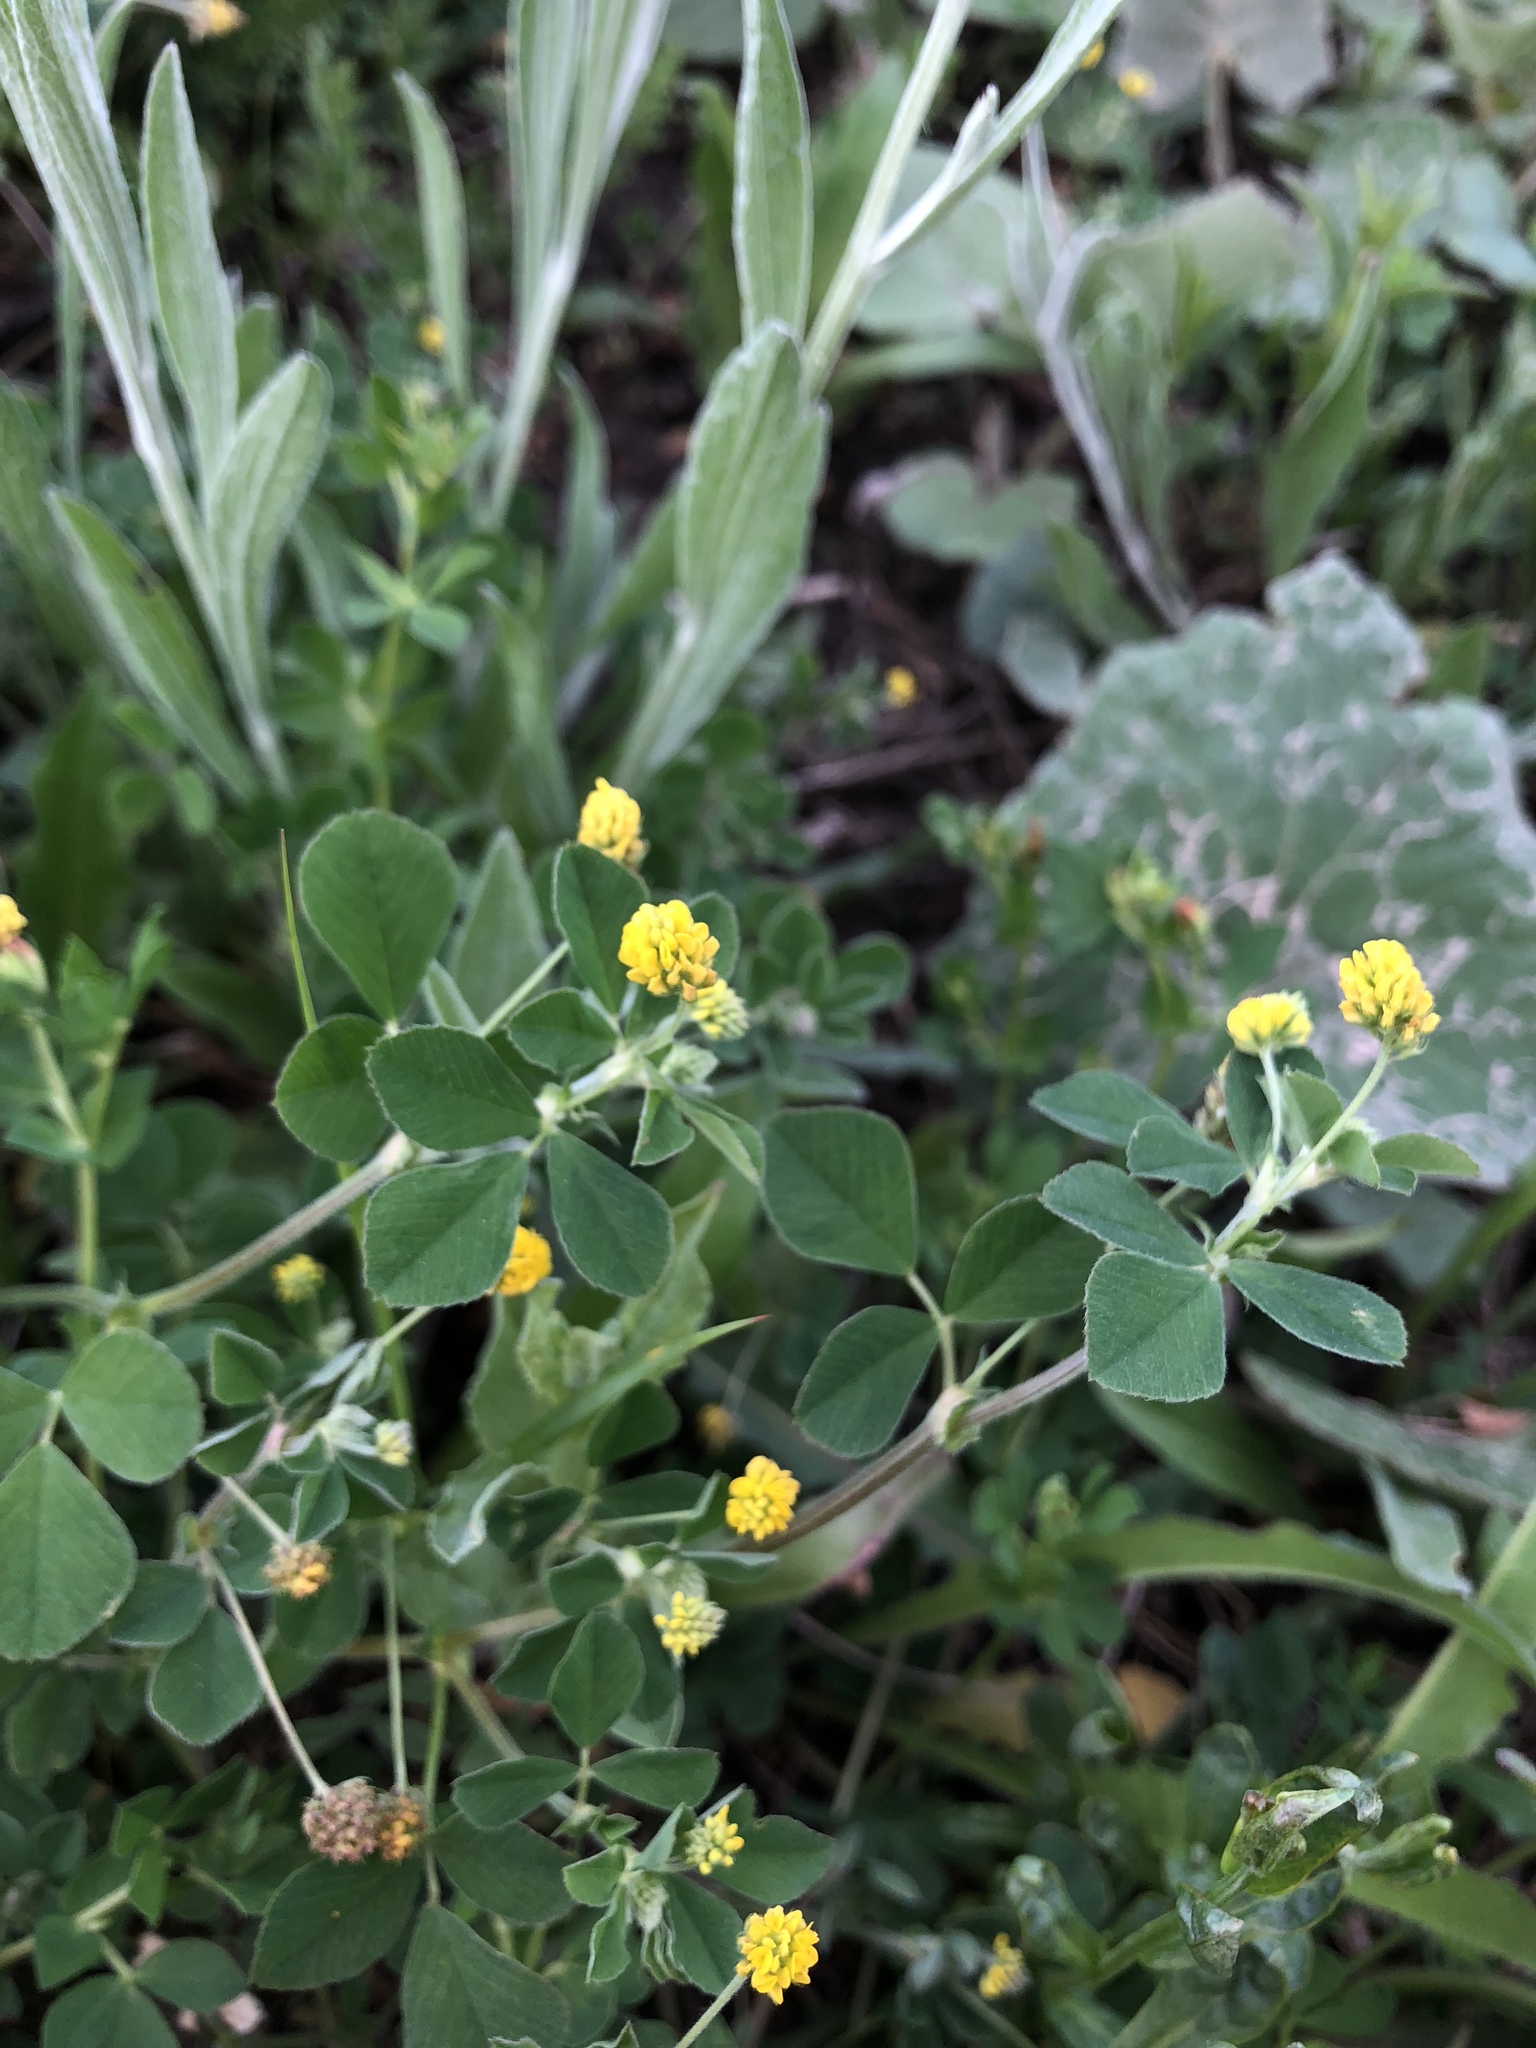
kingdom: Plantae
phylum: Tracheophyta
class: Magnoliopsida
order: Fabales
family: Fabaceae
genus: Medicago
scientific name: Medicago lupulina
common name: Black medick
